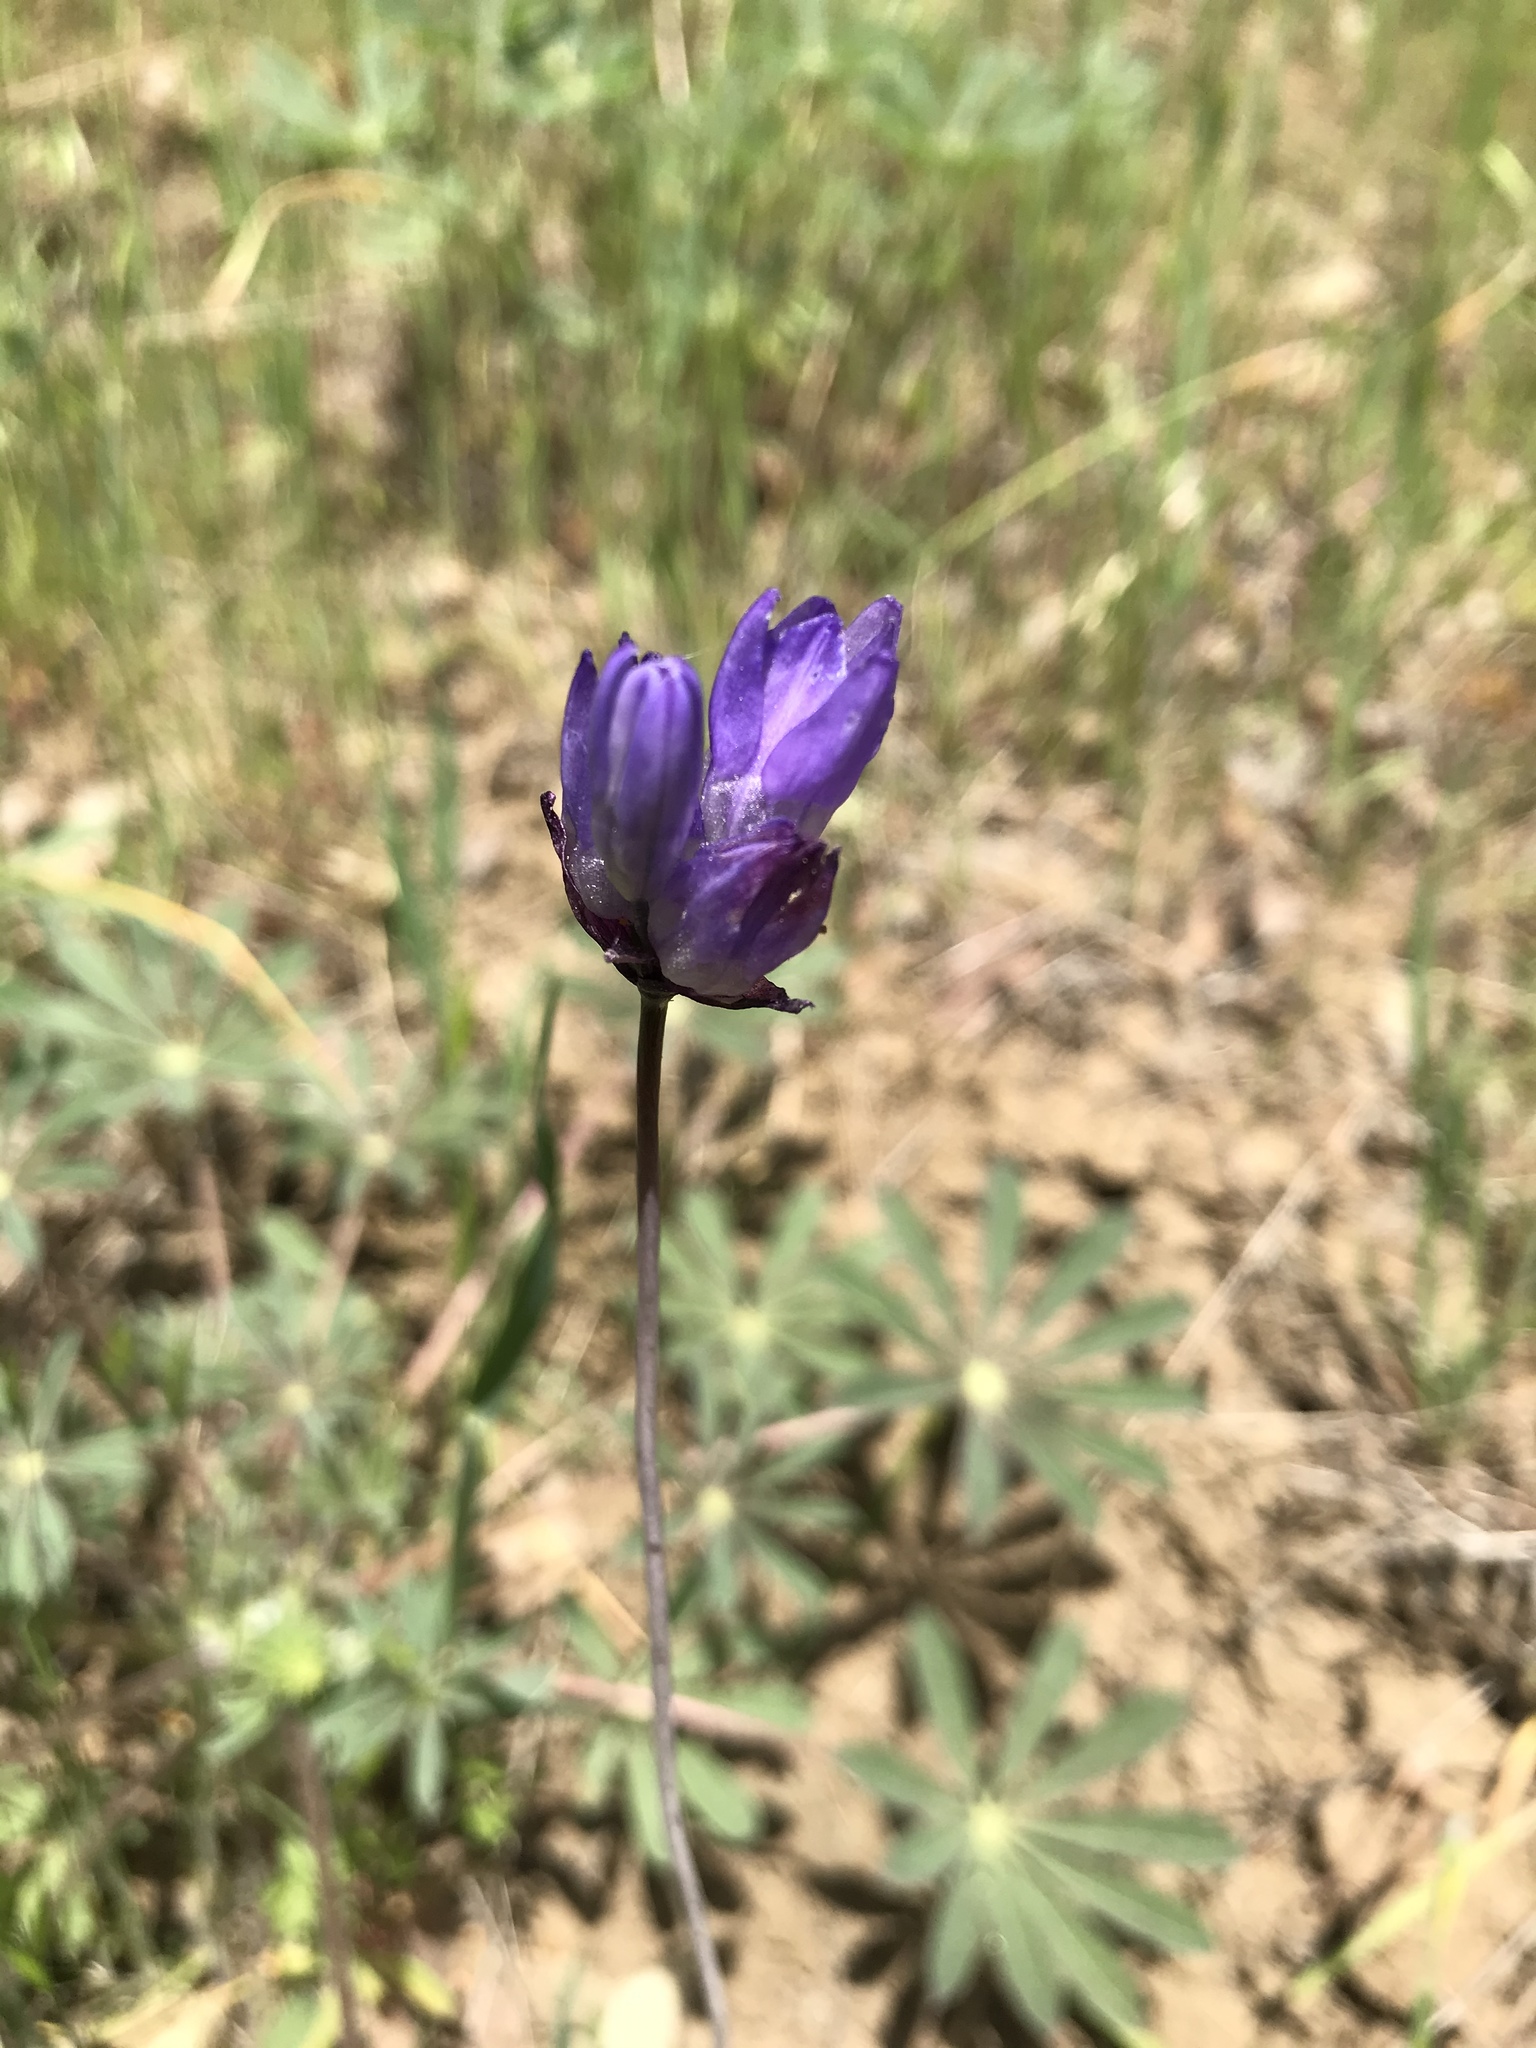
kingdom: Plantae
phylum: Tracheophyta
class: Liliopsida
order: Asparagales
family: Asparagaceae
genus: Dipterostemon
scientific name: Dipterostemon capitatus
